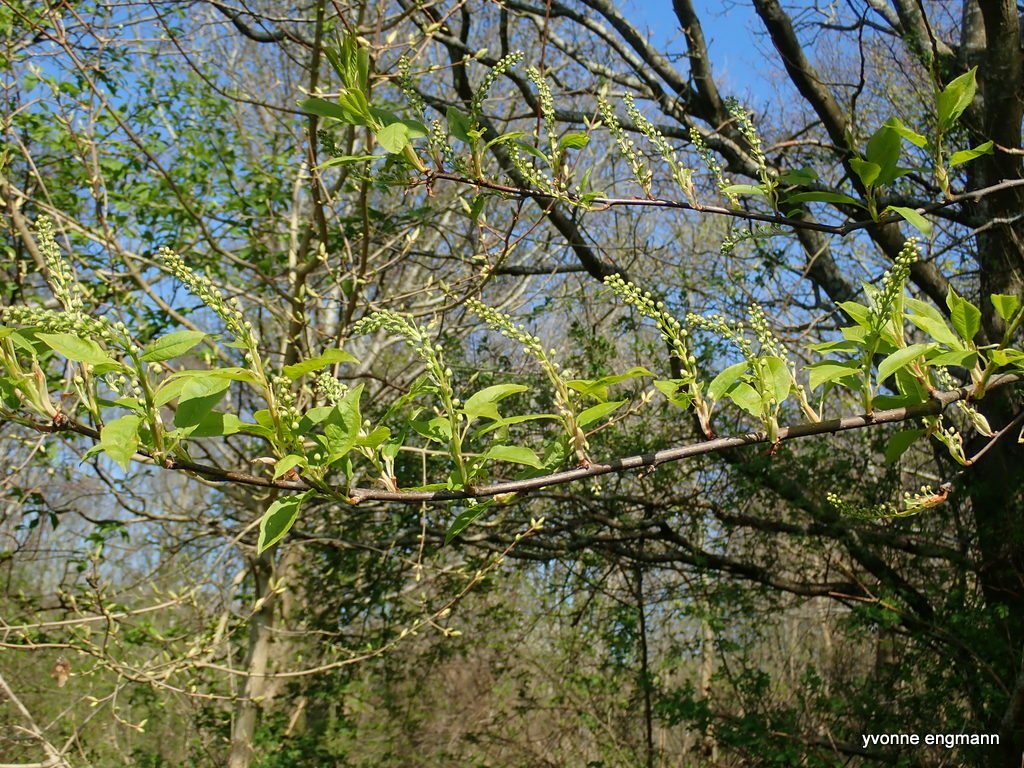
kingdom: Plantae
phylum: Tracheophyta
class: Magnoliopsida
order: Rosales
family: Rosaceae
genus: Prunus
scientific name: Prunus padus
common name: Bird cherry
